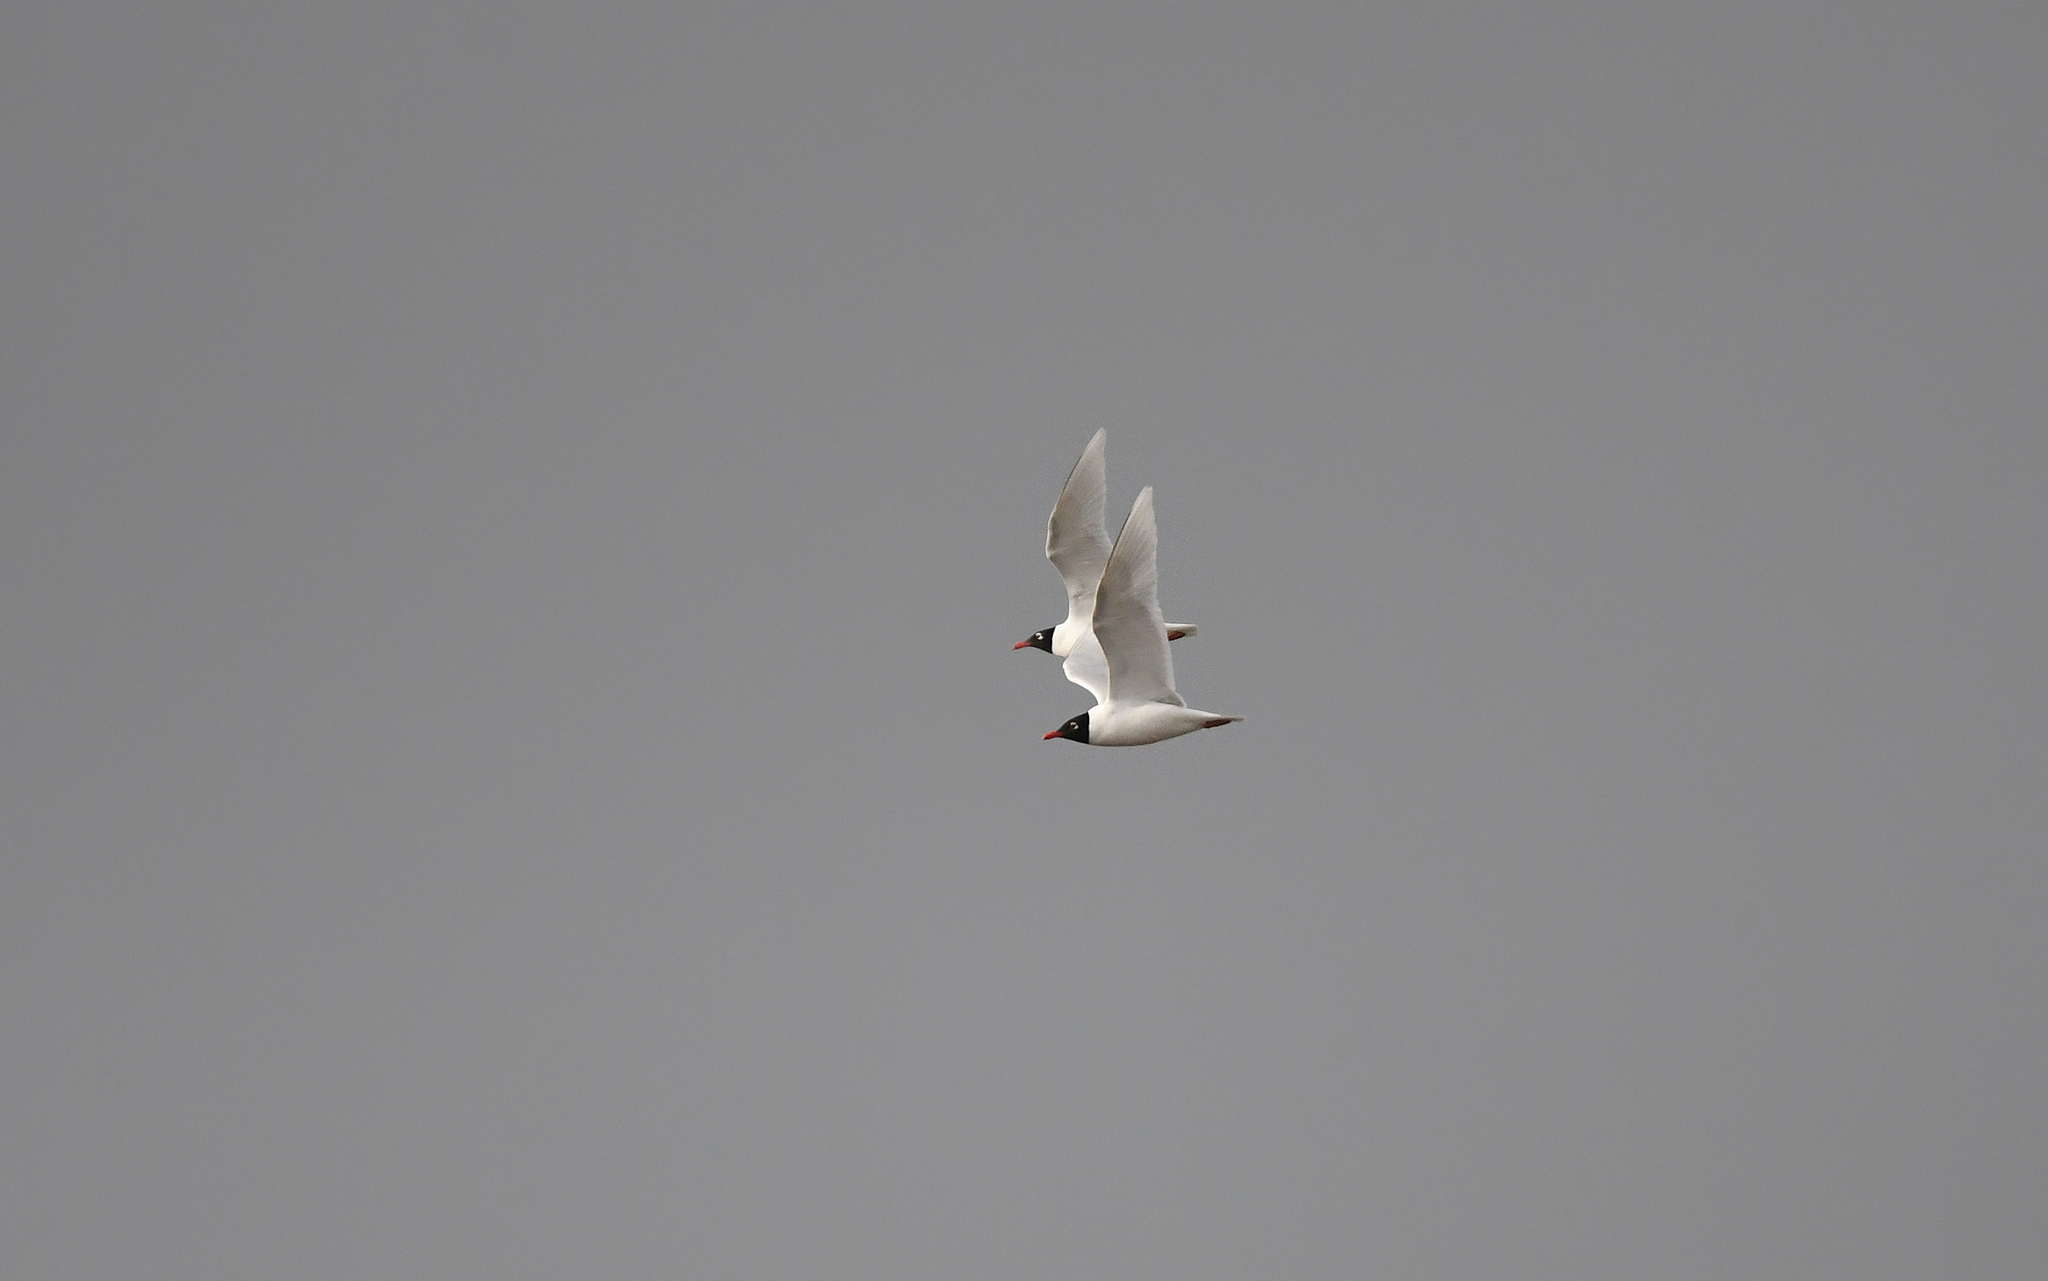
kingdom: Animalia
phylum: Chordata
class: Aves
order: Charadriiformes
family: Laridae
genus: Ichthyaetus
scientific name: Ichthyaetus melanocephalus
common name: Mediterranean gull
